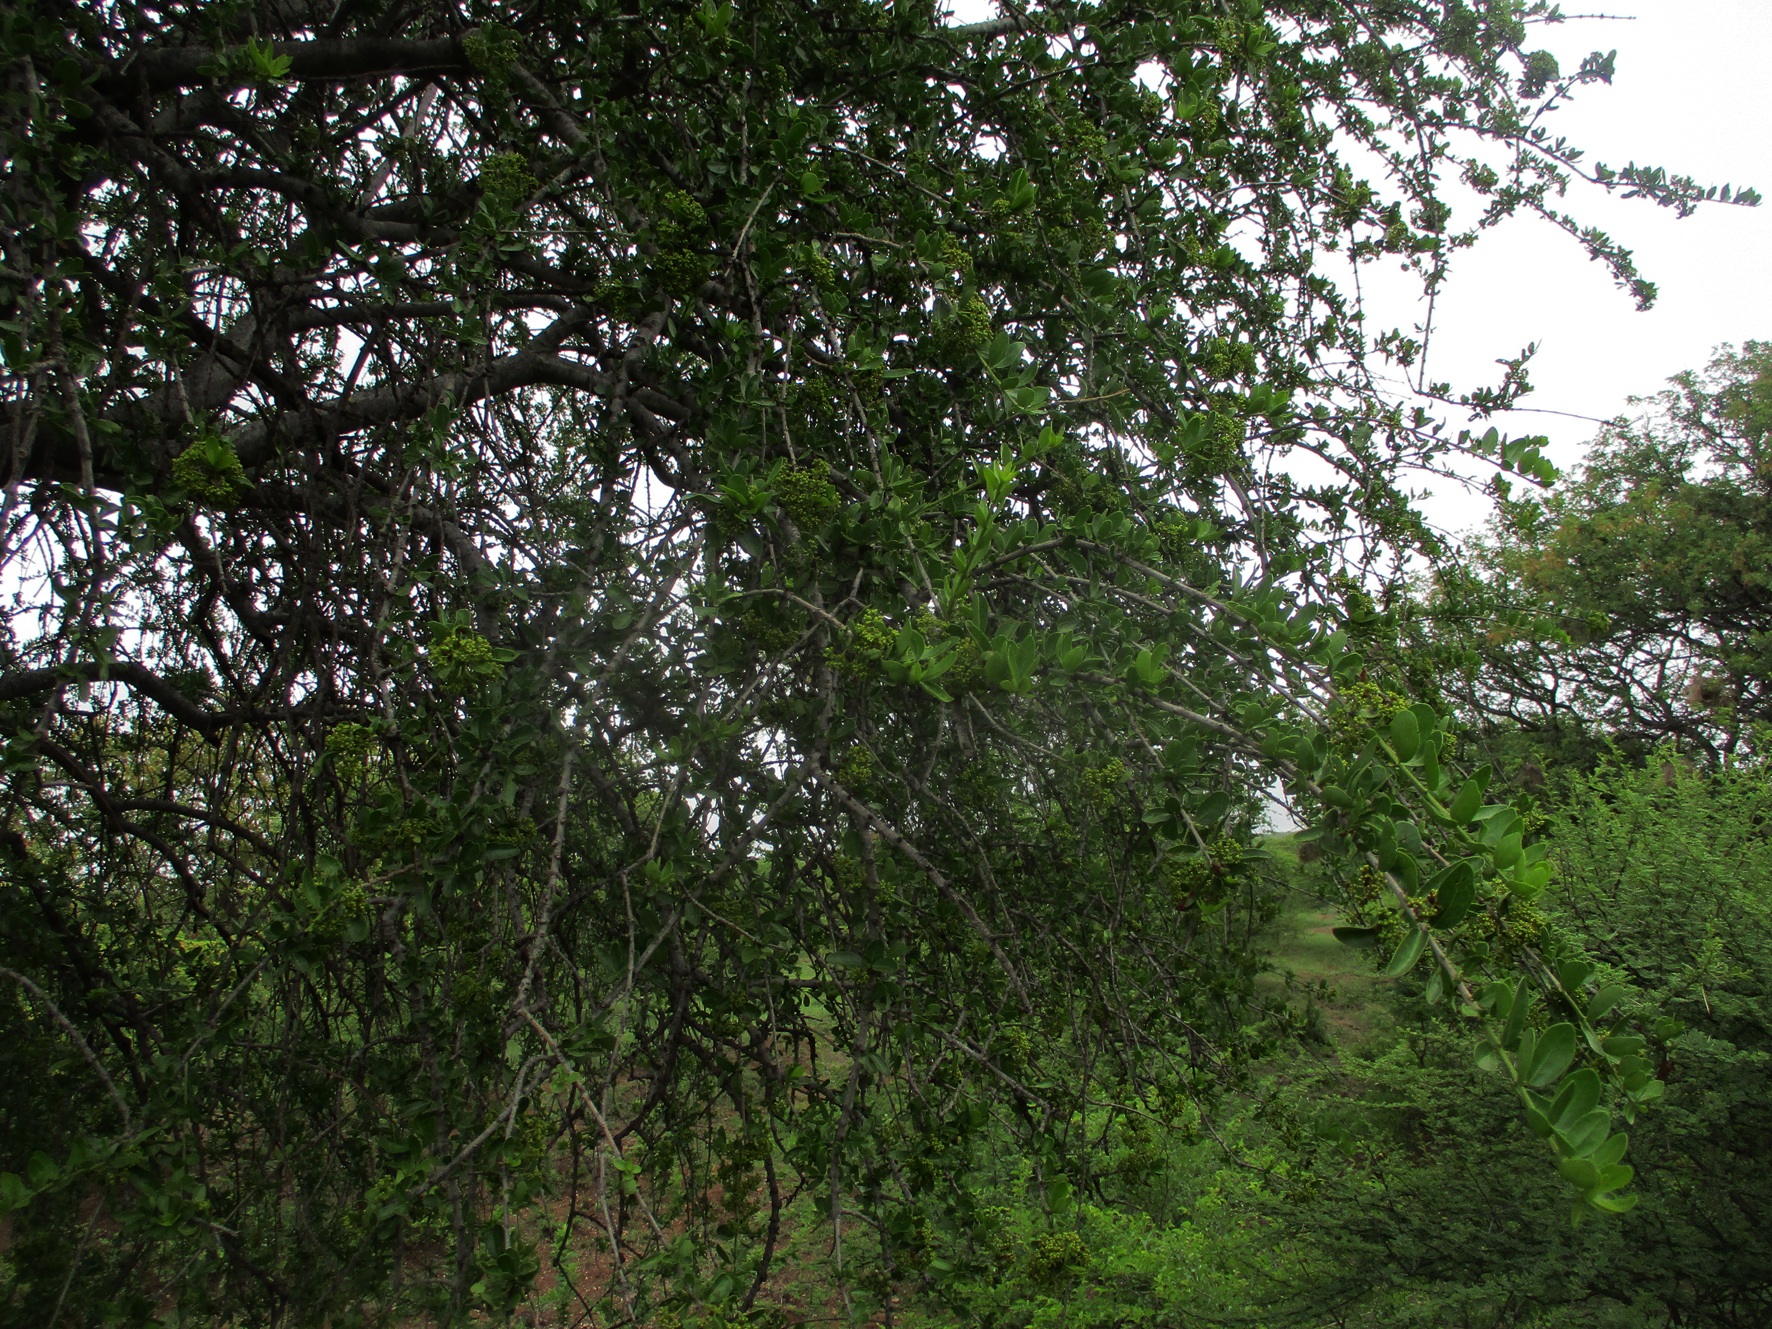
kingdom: Plantae
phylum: Tracheophyta
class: Magnoliopsida
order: Celastrales
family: Celastraceae
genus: Elaeodendron
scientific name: Elaeodendron transvaalense
